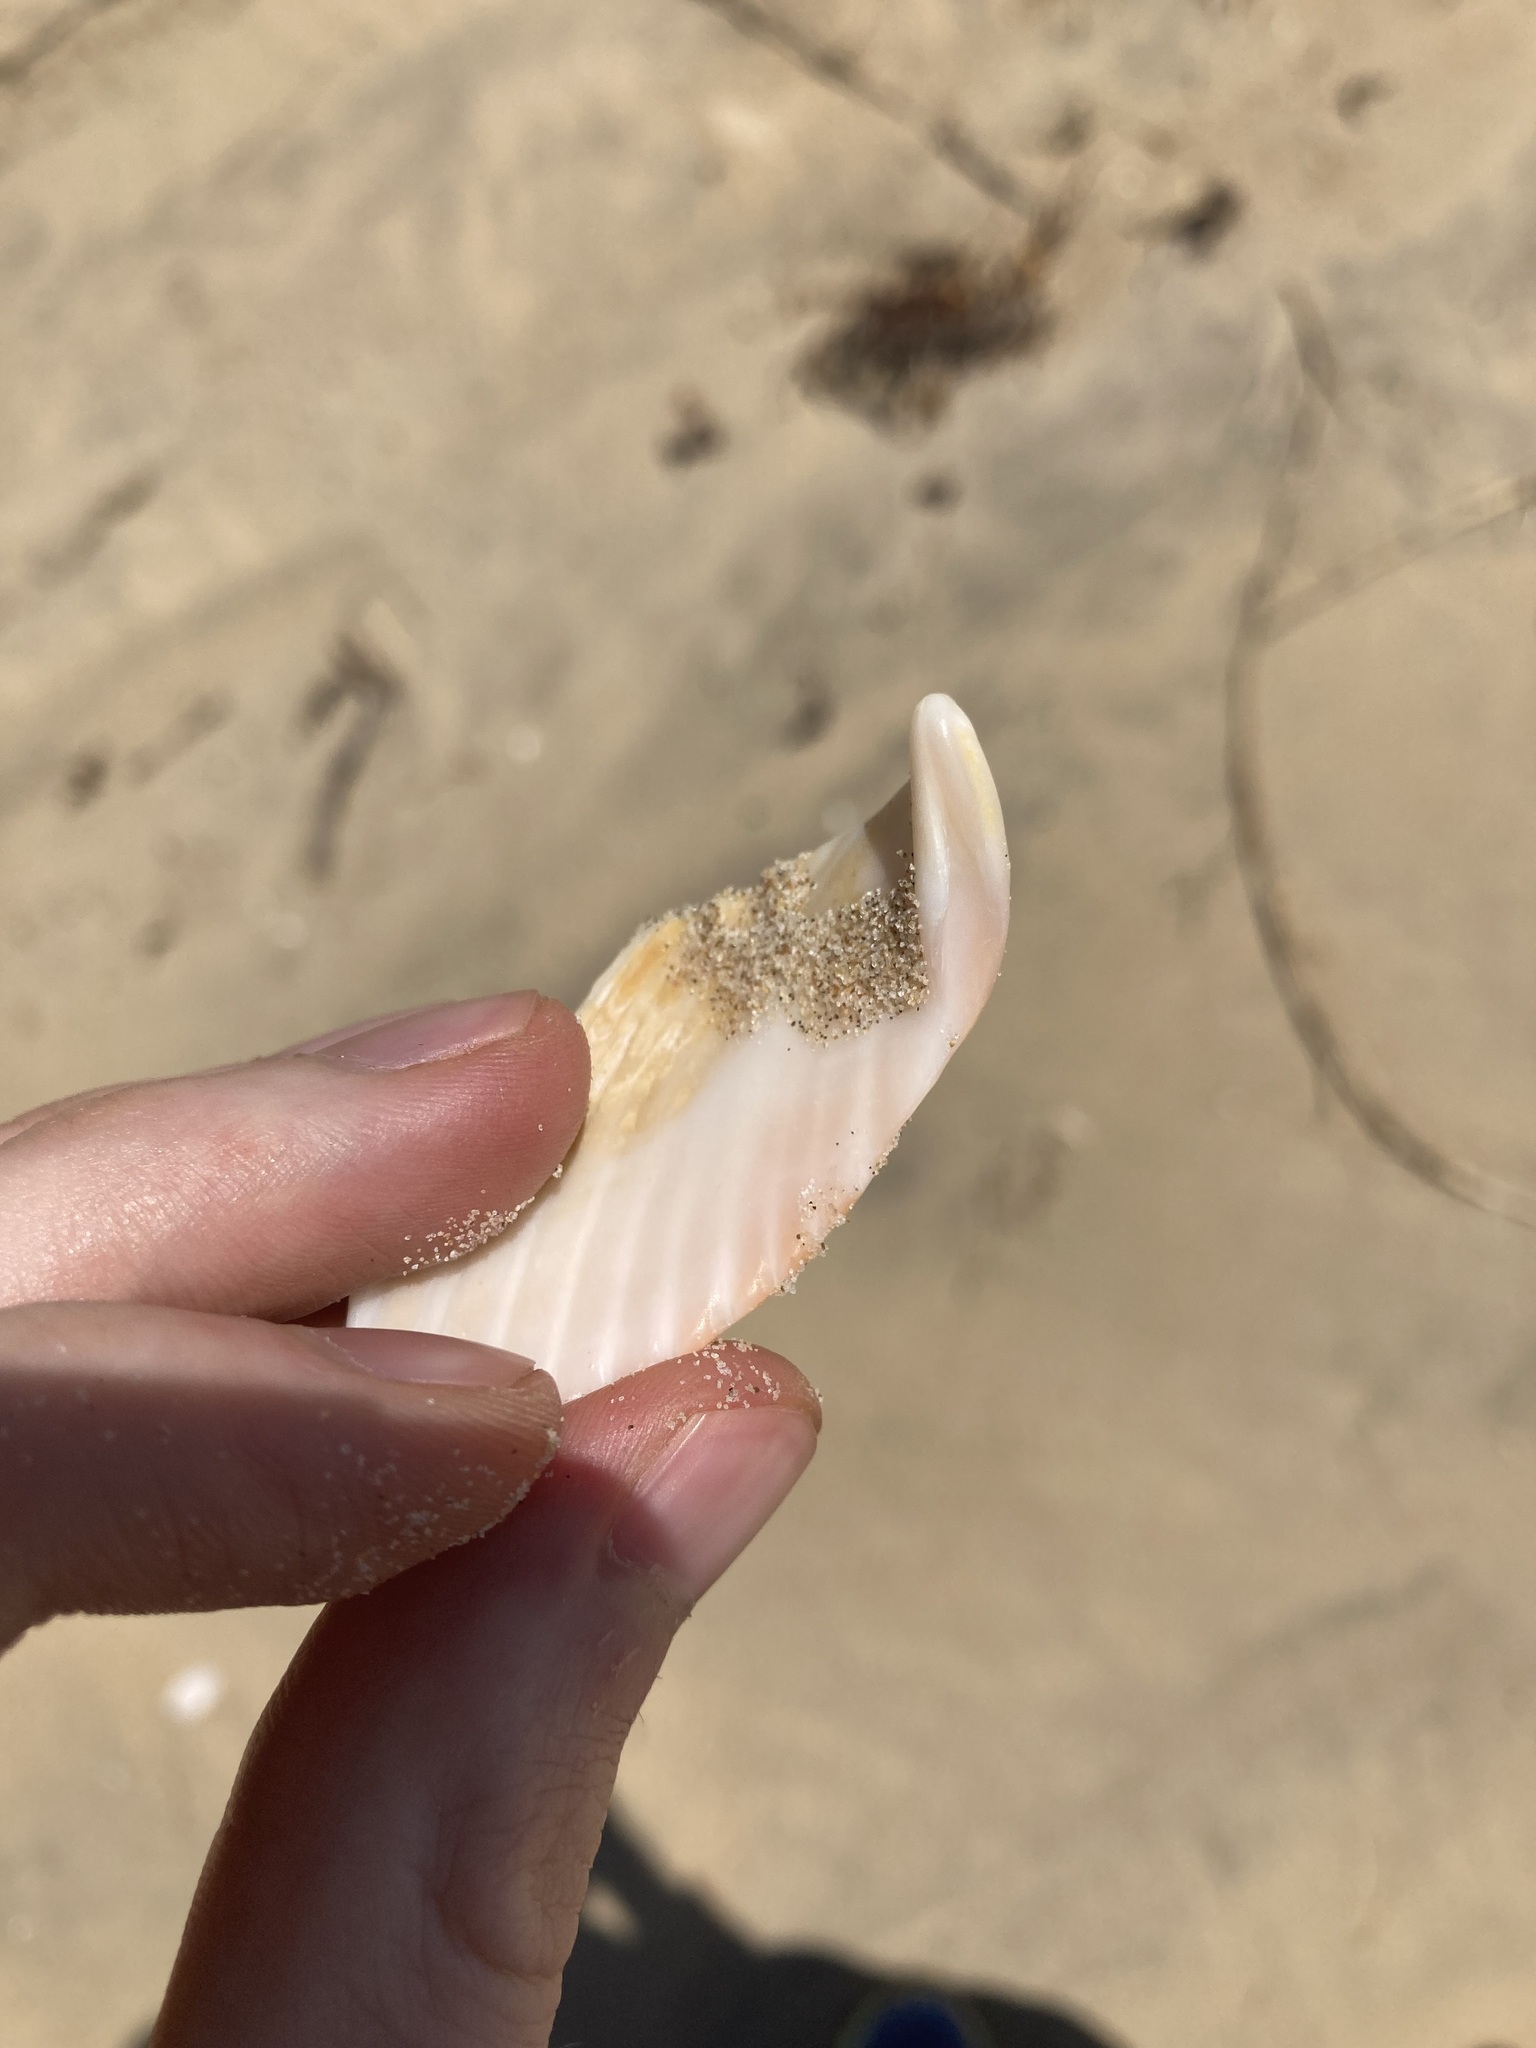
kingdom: Animalia
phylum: Mollusca
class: Bivalvia
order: Cardiida
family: Cardiidae
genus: Vepricardium
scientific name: Vepricardium multispinosum
